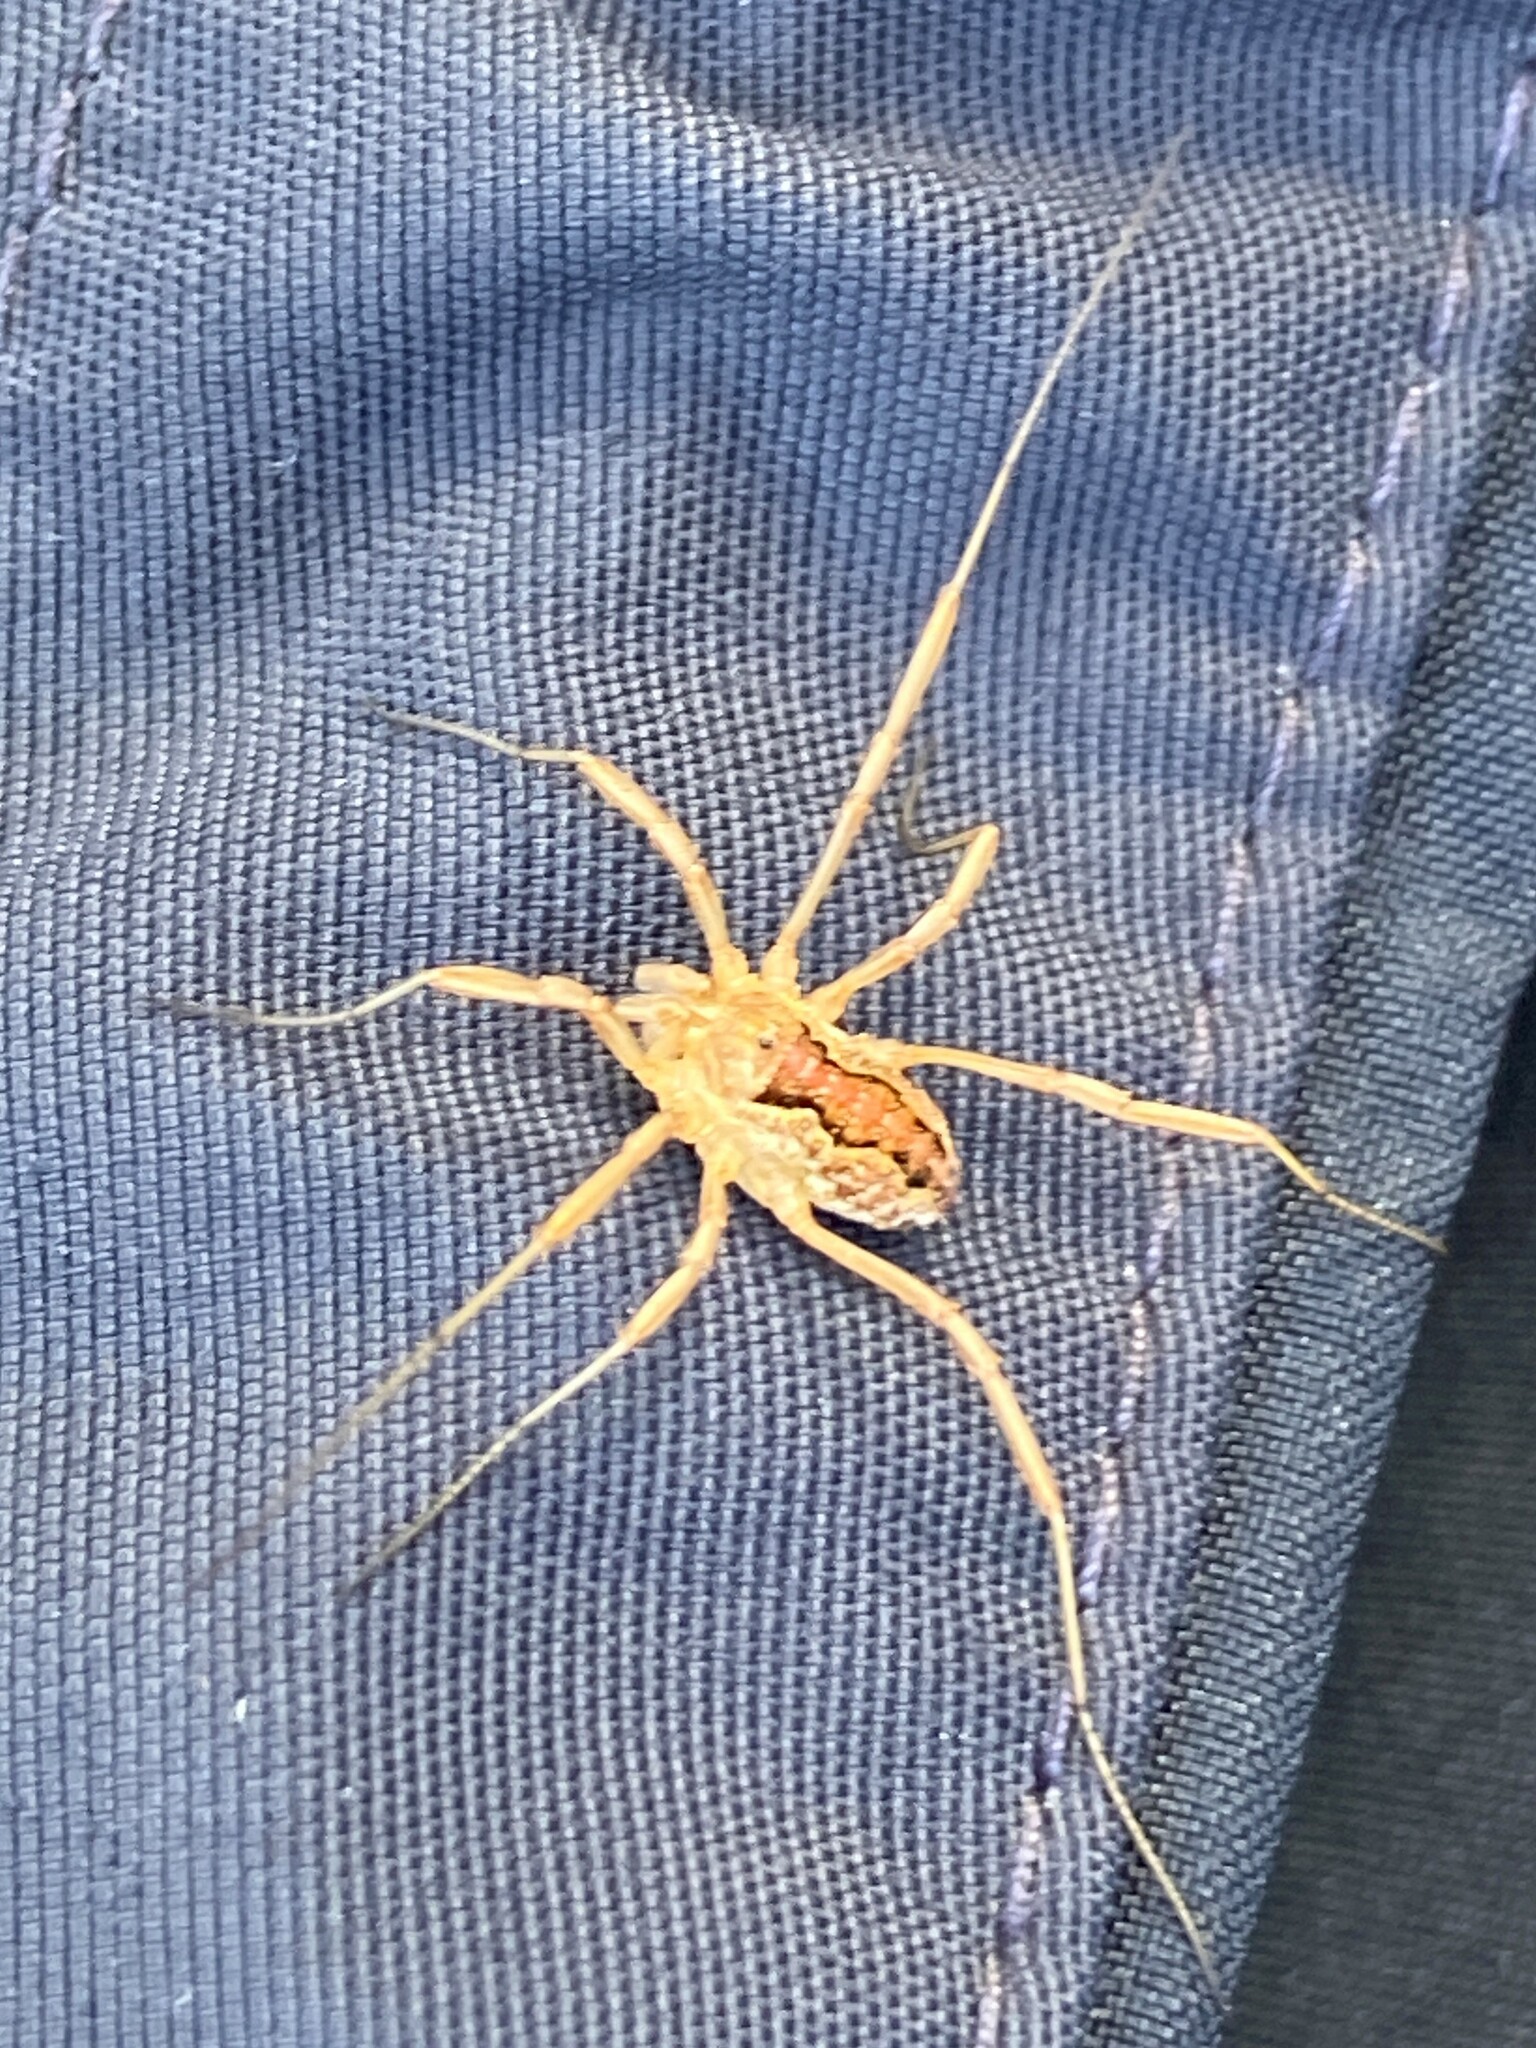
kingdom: Animalia
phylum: Arthropoda
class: Arachnida
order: Opiliones
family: Phalangiidae
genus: Mitopus
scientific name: Mitopus morio
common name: Saddleback harvestman
